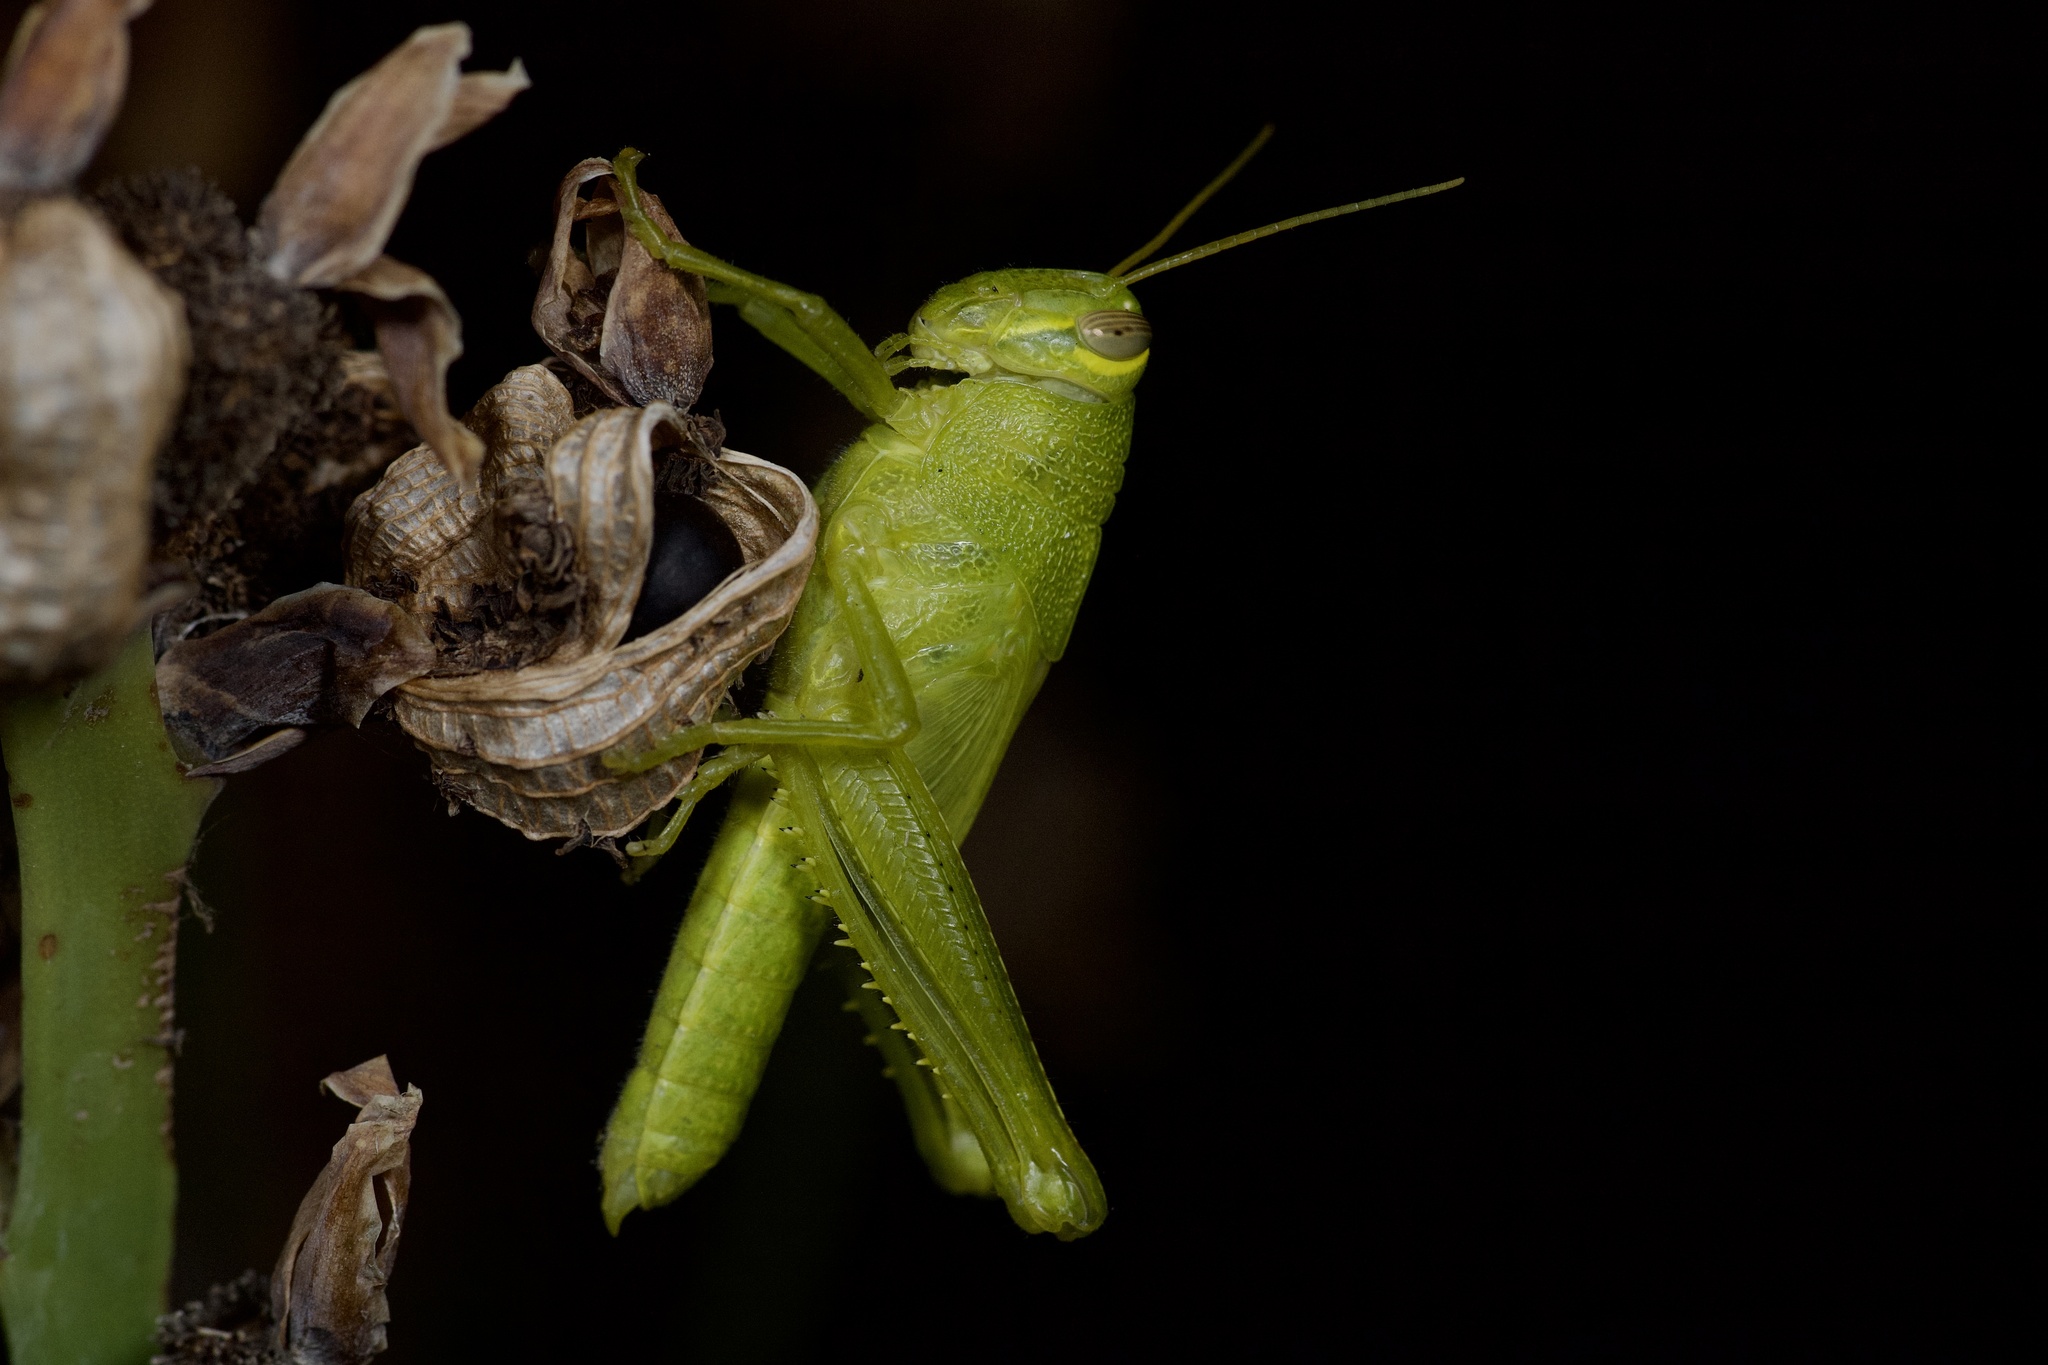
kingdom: Animalia
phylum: Arthropoda
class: Insecta
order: Orthoptera
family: Acrididae
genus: Schistocerca
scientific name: Schistocerca obscura
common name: Obscure bird grasshopper
